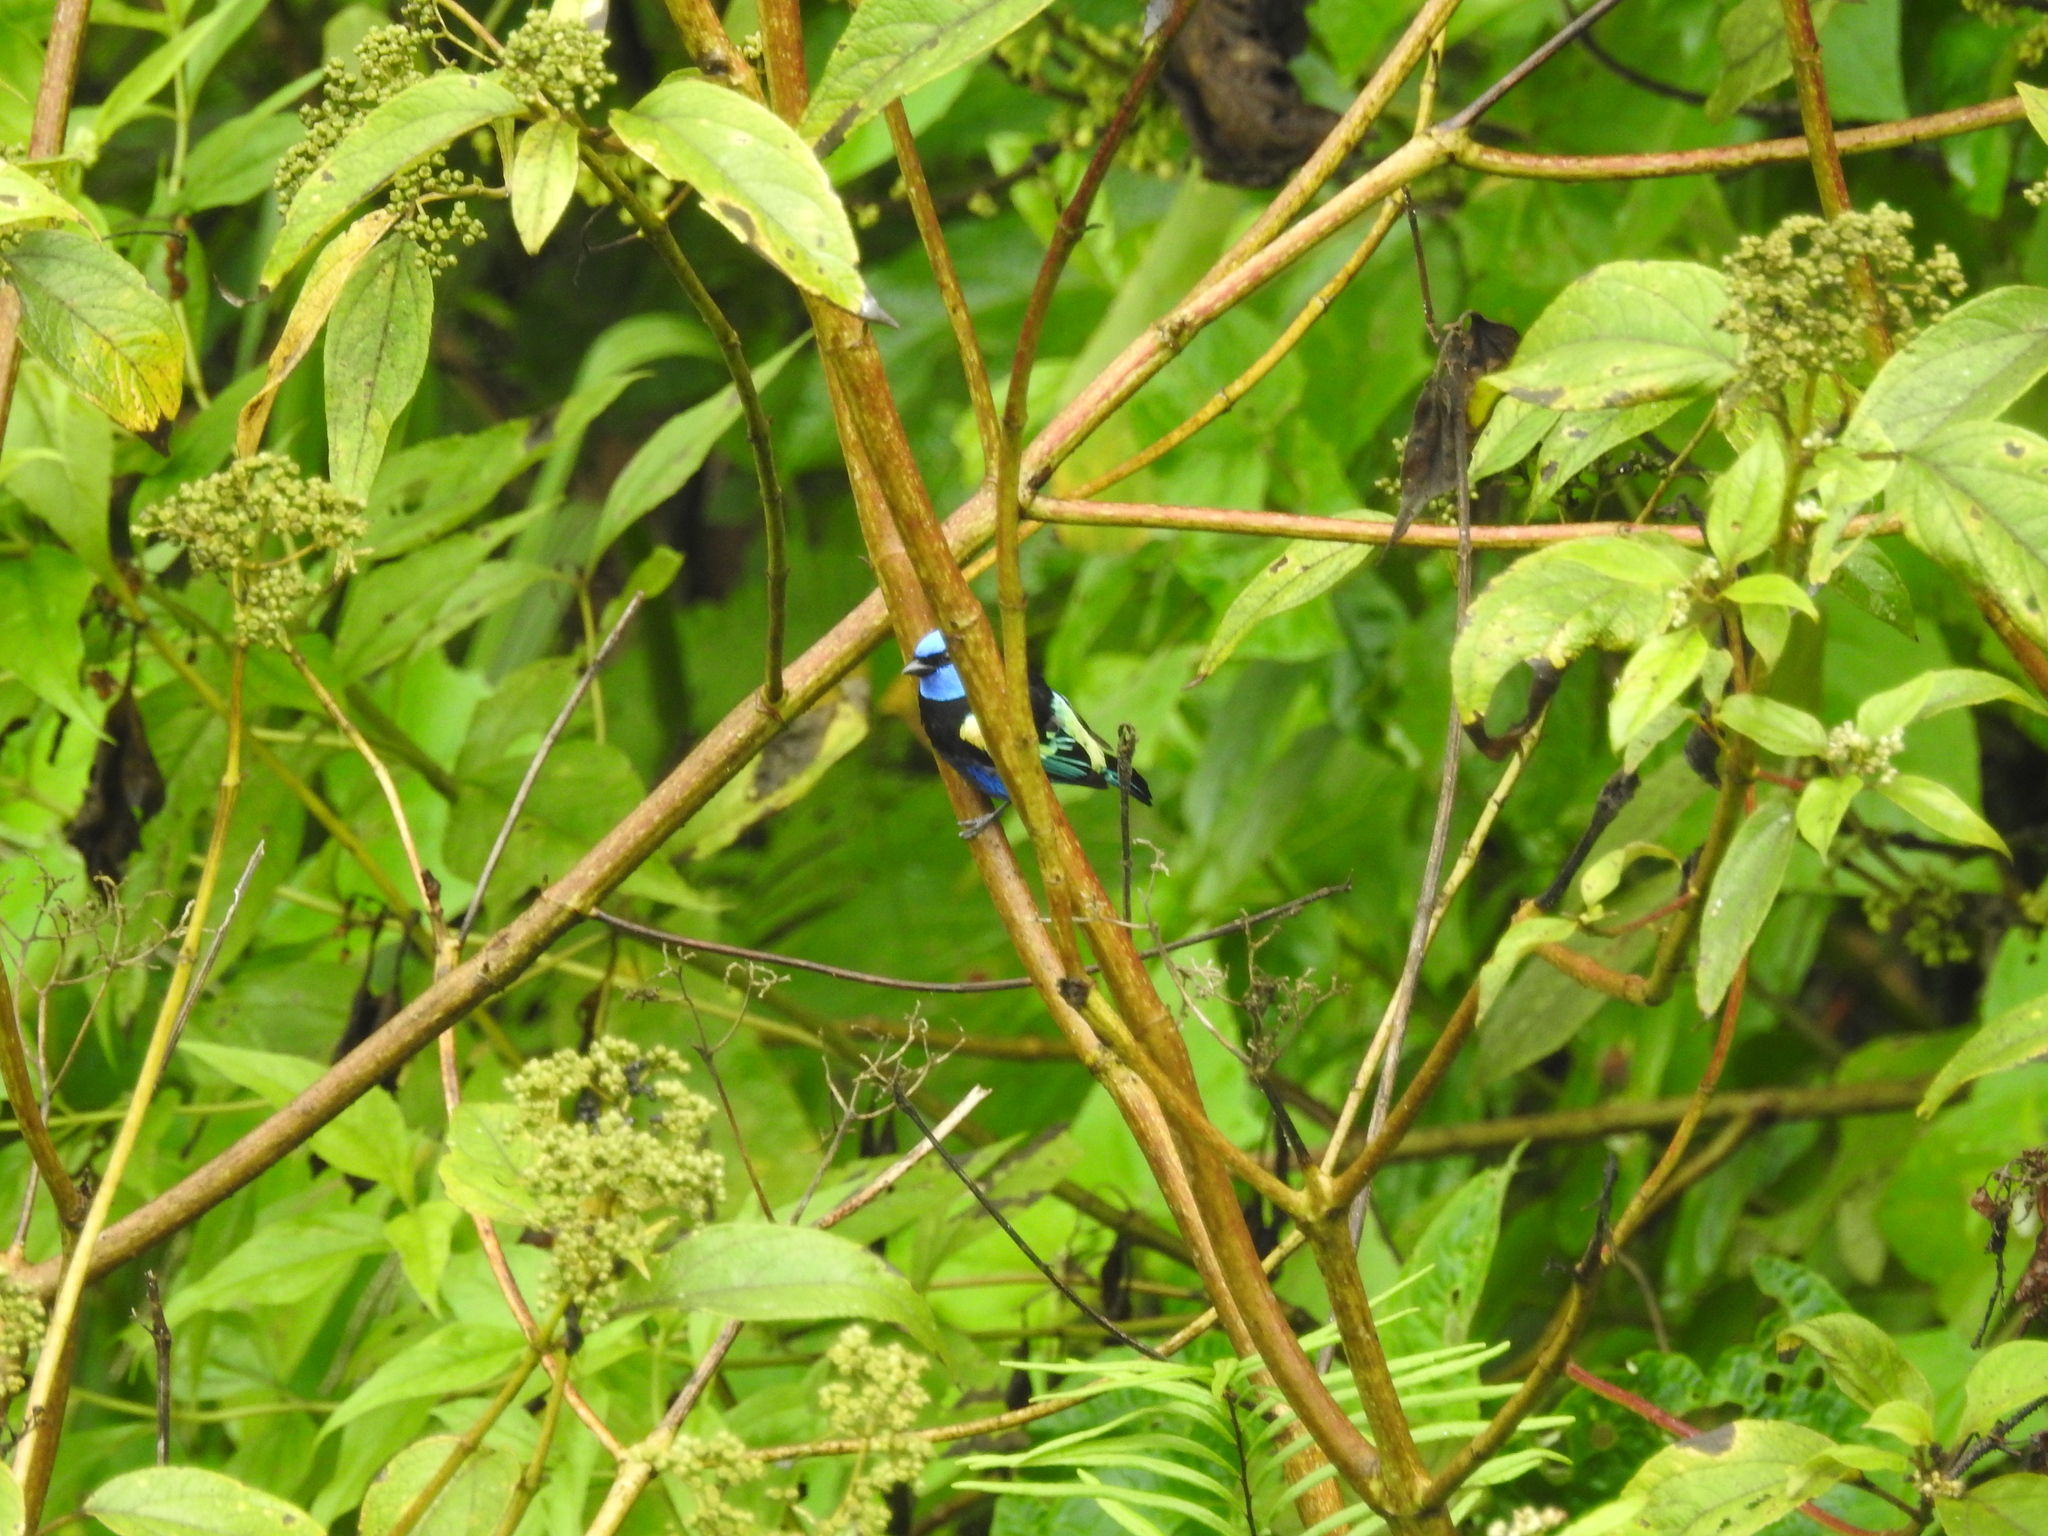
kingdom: Animalia
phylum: Chordata
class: Aves
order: Passeriformes
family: Thraupidae
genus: Stilpnia
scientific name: Stilpnia cyanicollis
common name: Blue-necked tanager
